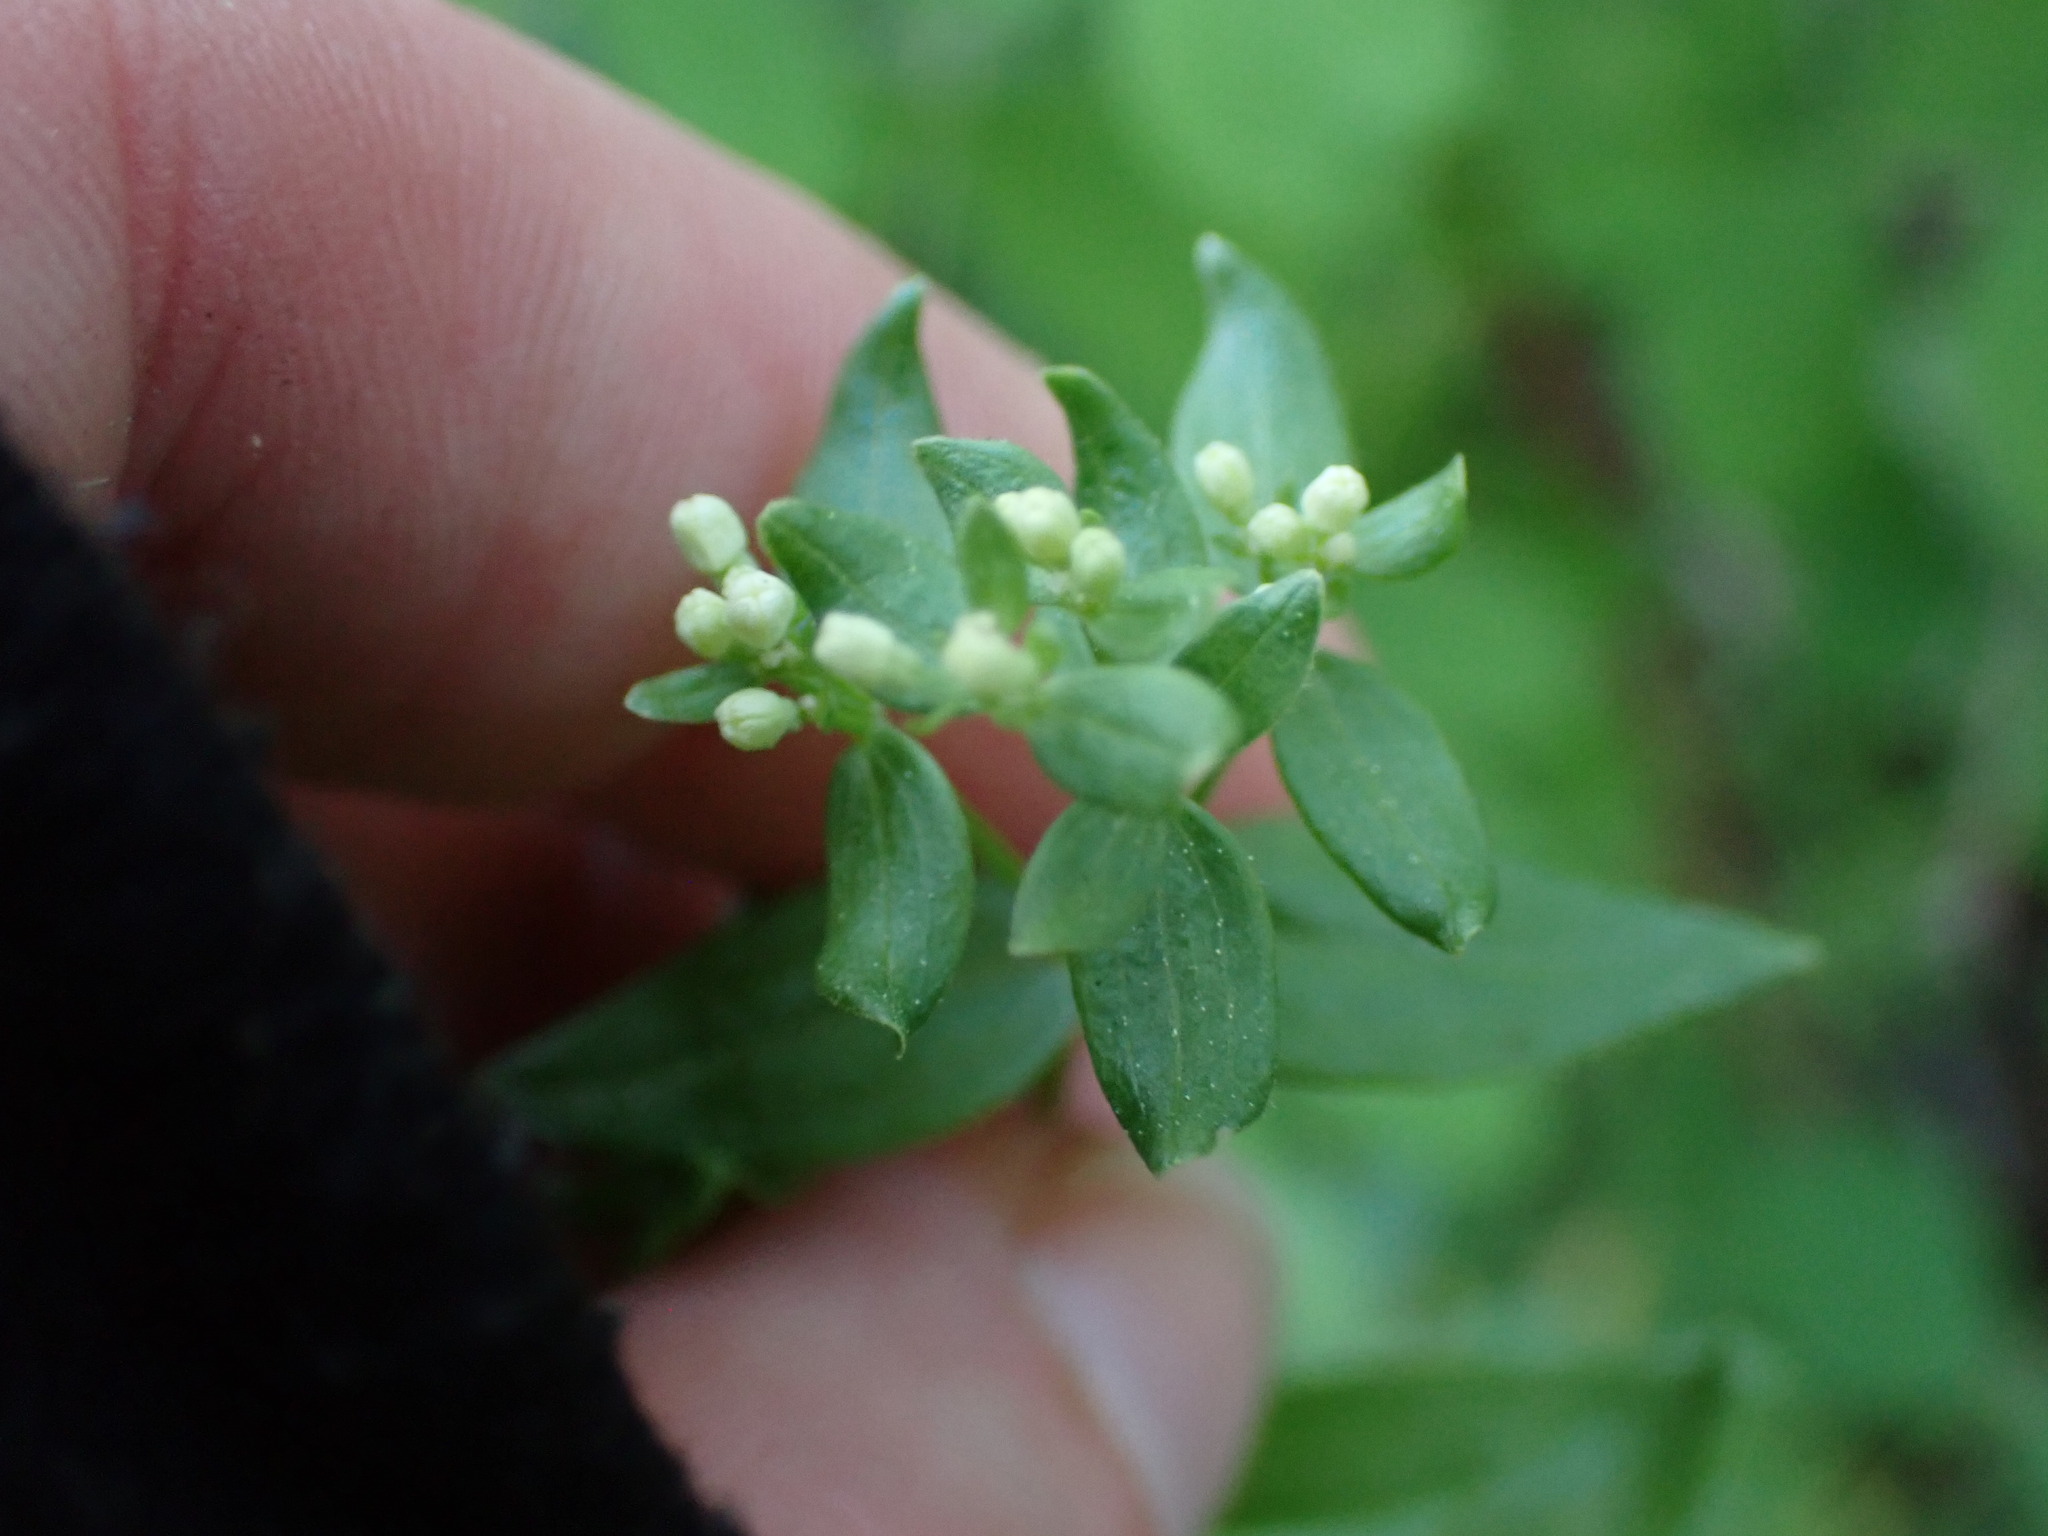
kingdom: Plantae
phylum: Tracheophyta
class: Magnoliopsida
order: Gentianales
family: Rubiaceae
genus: Galium
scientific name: Galium boreale
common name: Northern bedstraw
